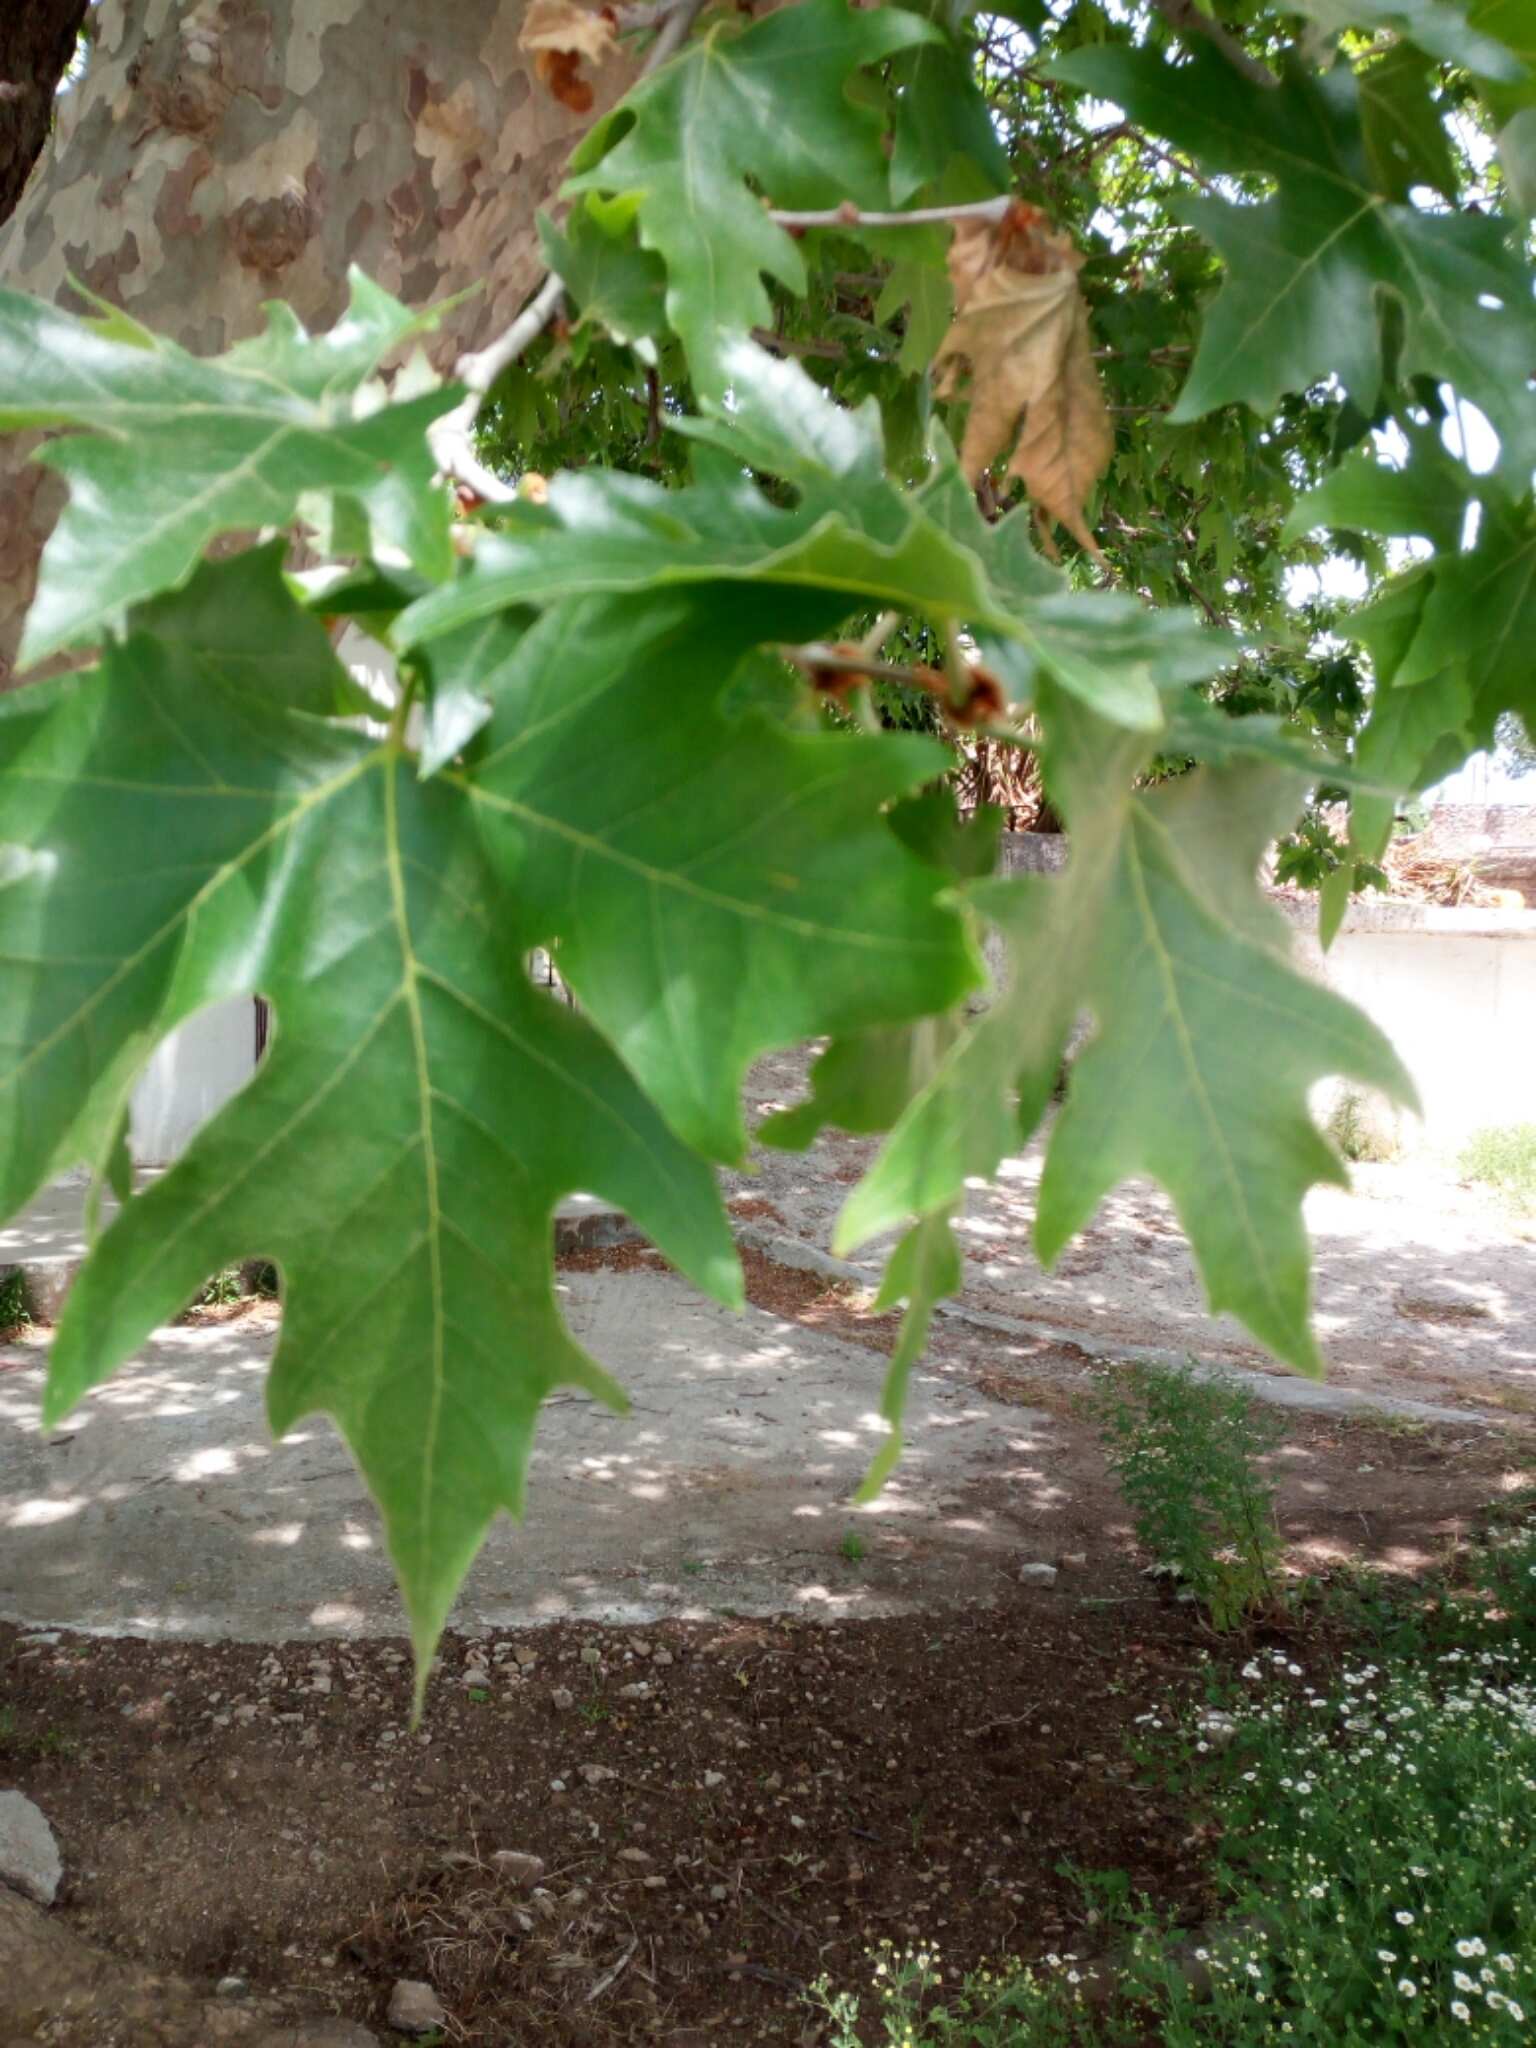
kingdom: Plantae
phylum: Tracheophyta
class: Magnoliopsida
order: Proteales
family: Platanaceae
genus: Platanus
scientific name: Platanus orientalis
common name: Oriental plane
